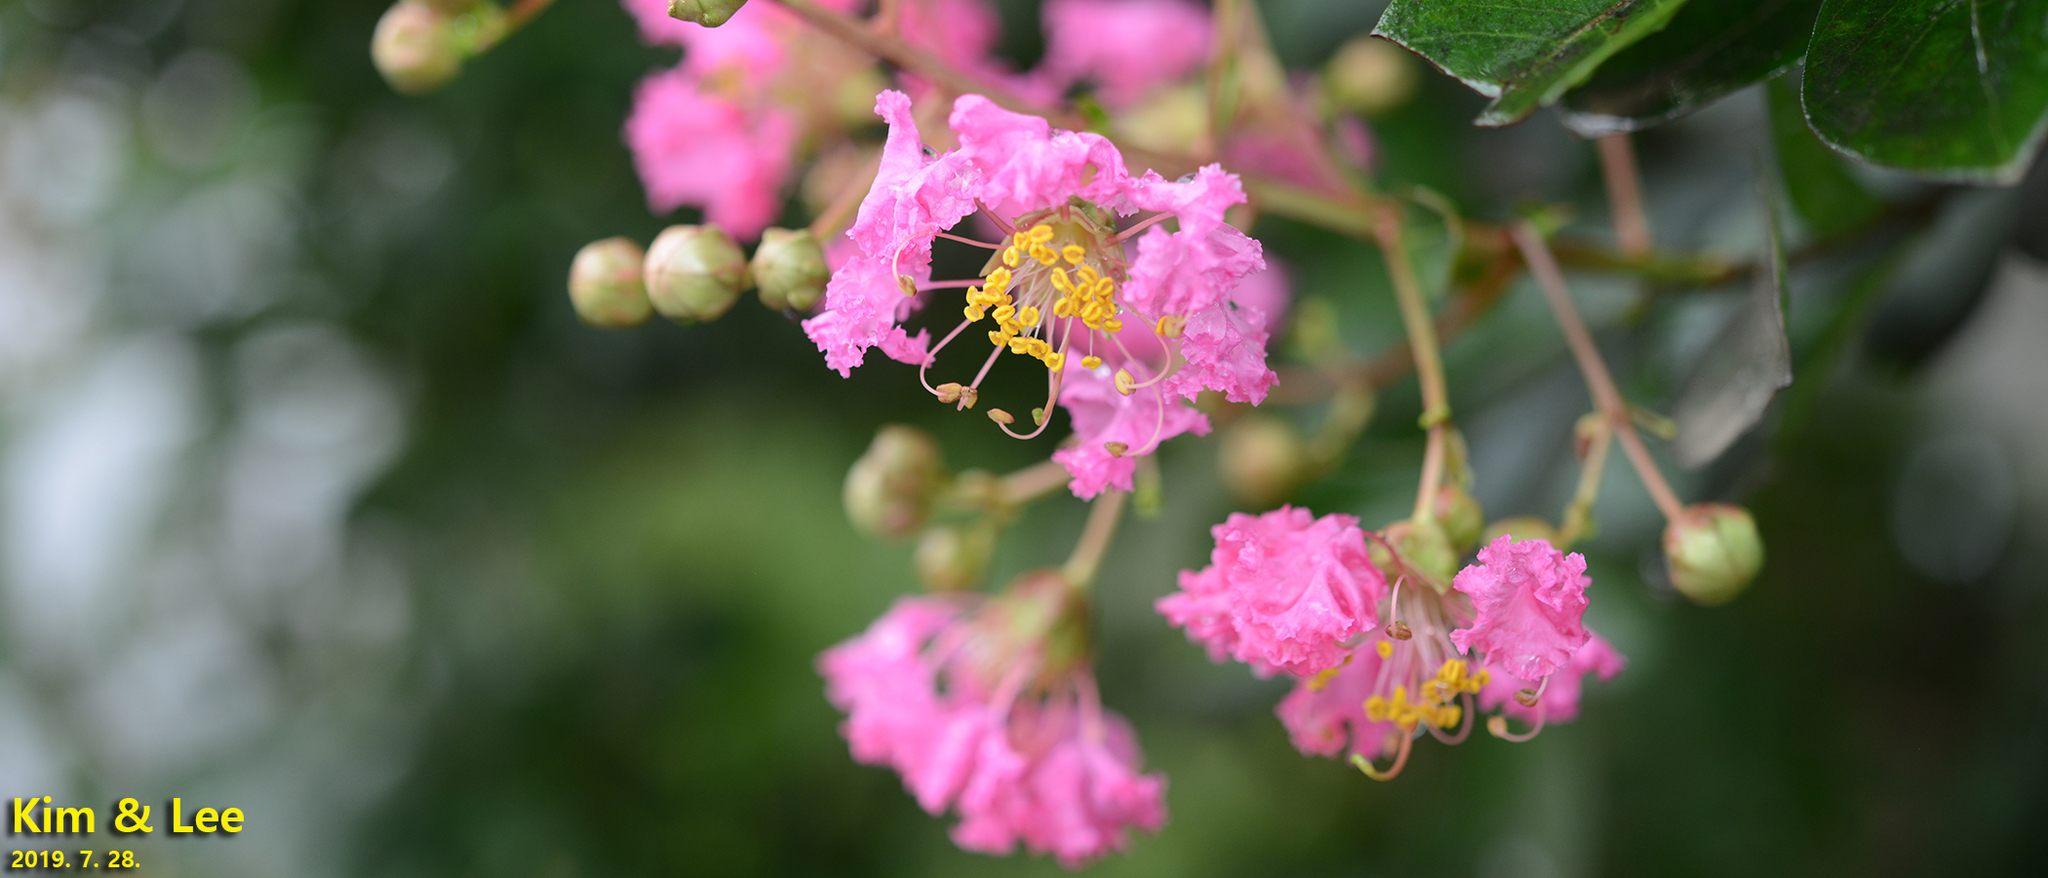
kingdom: Plantae
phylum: Tracheophyta
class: Magnoliopsida
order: Myrtales
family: Lythraceae
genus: Lagerstroemia
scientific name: Lagerstroemia indica
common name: Crape-myrtle
